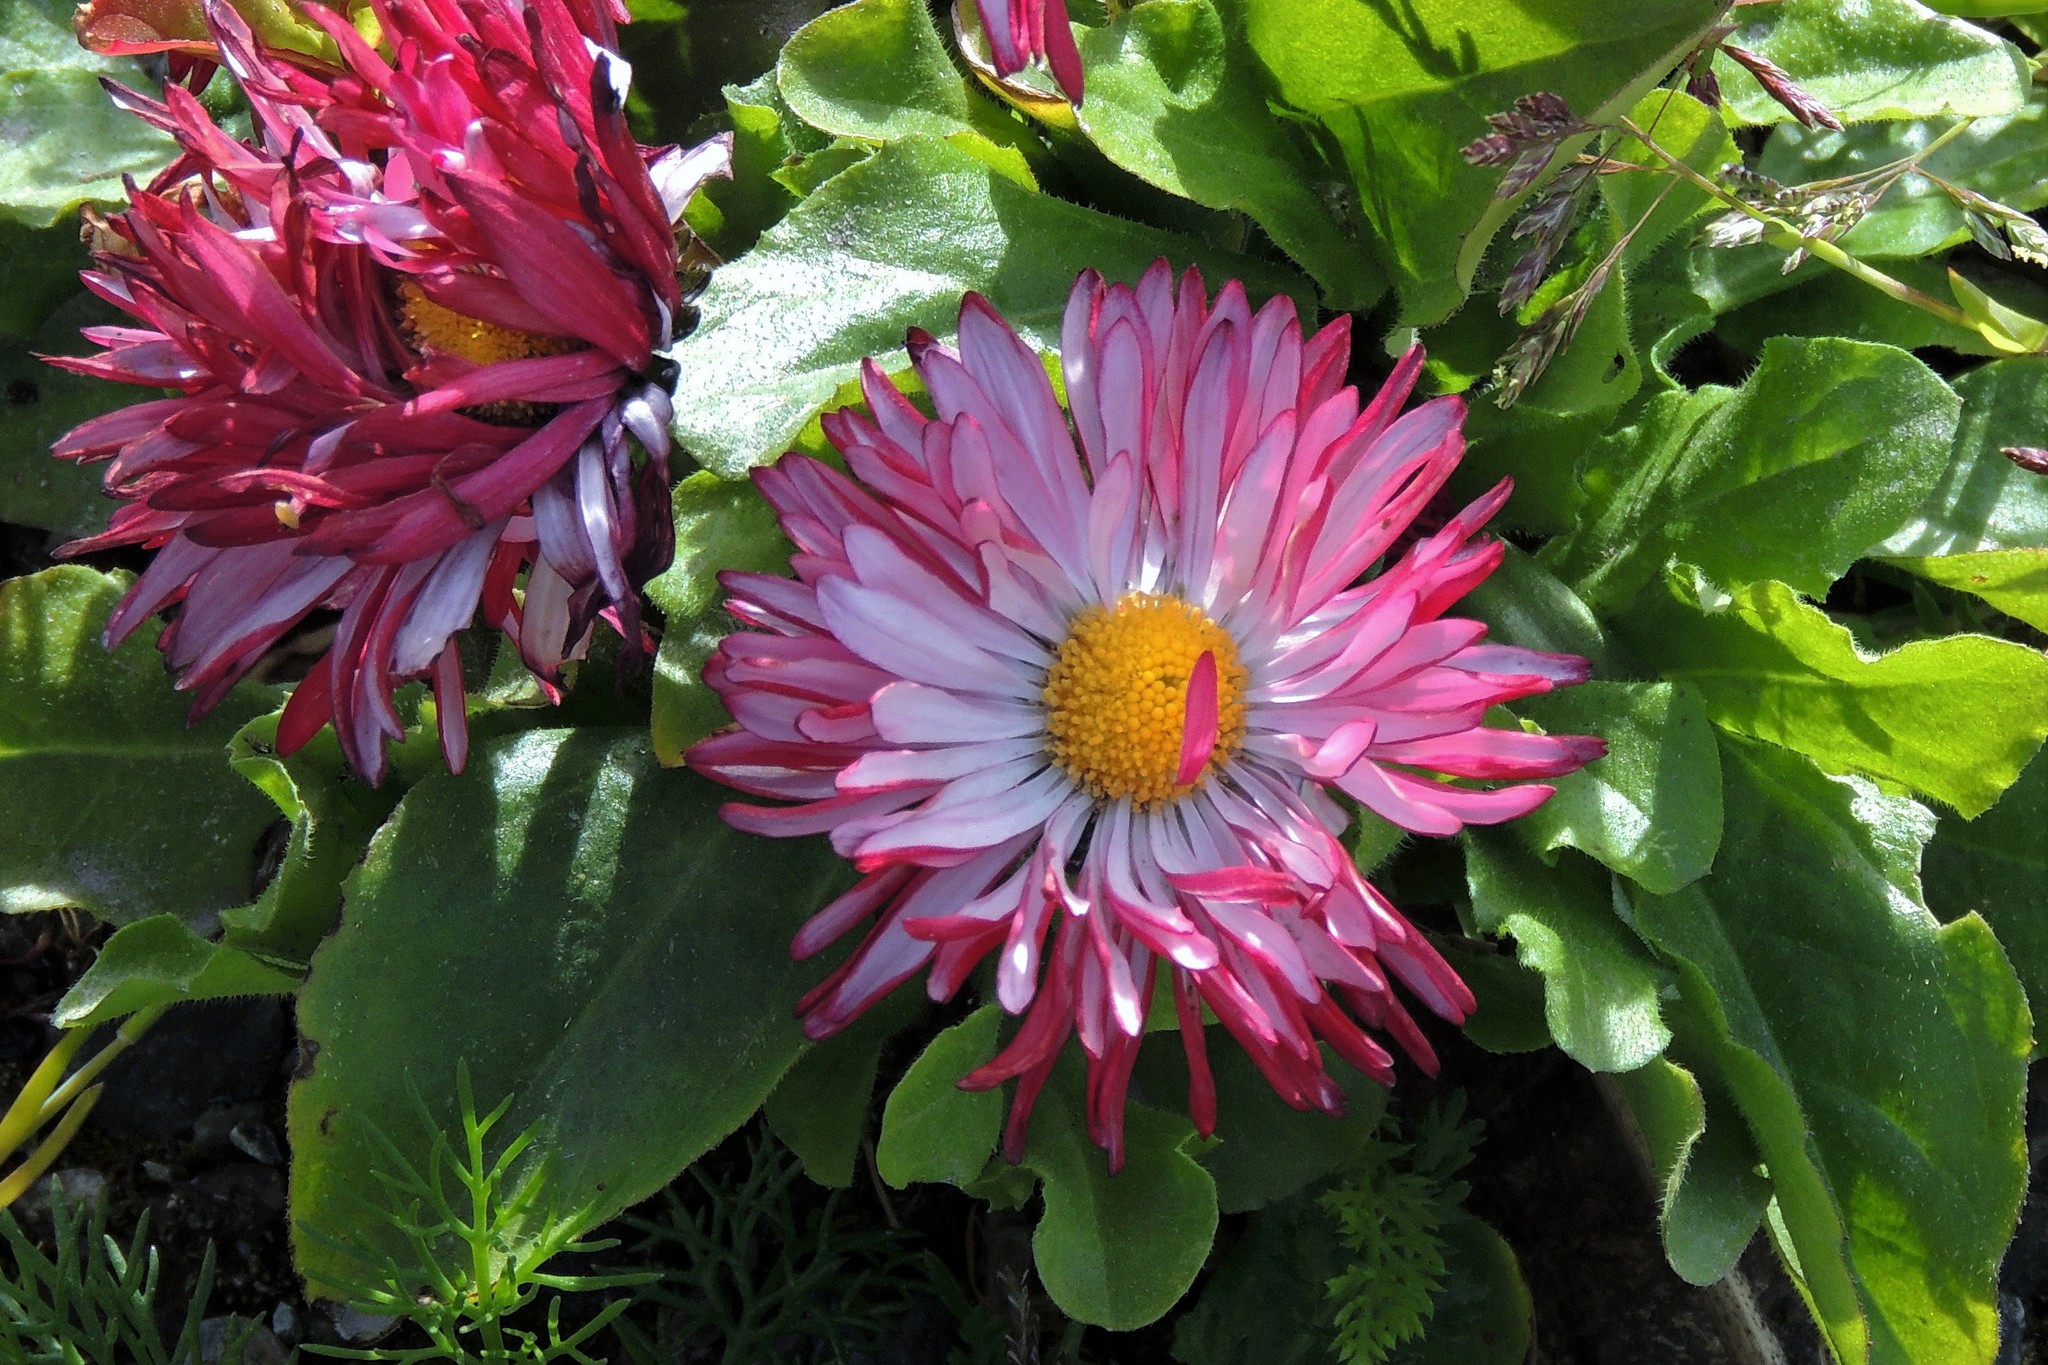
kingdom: Plantae
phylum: Tracheophyta
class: Magnoliopsida
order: Asterales
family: Asteraceae
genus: Bellis
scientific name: Bellis perennis
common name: Lawndaisy
